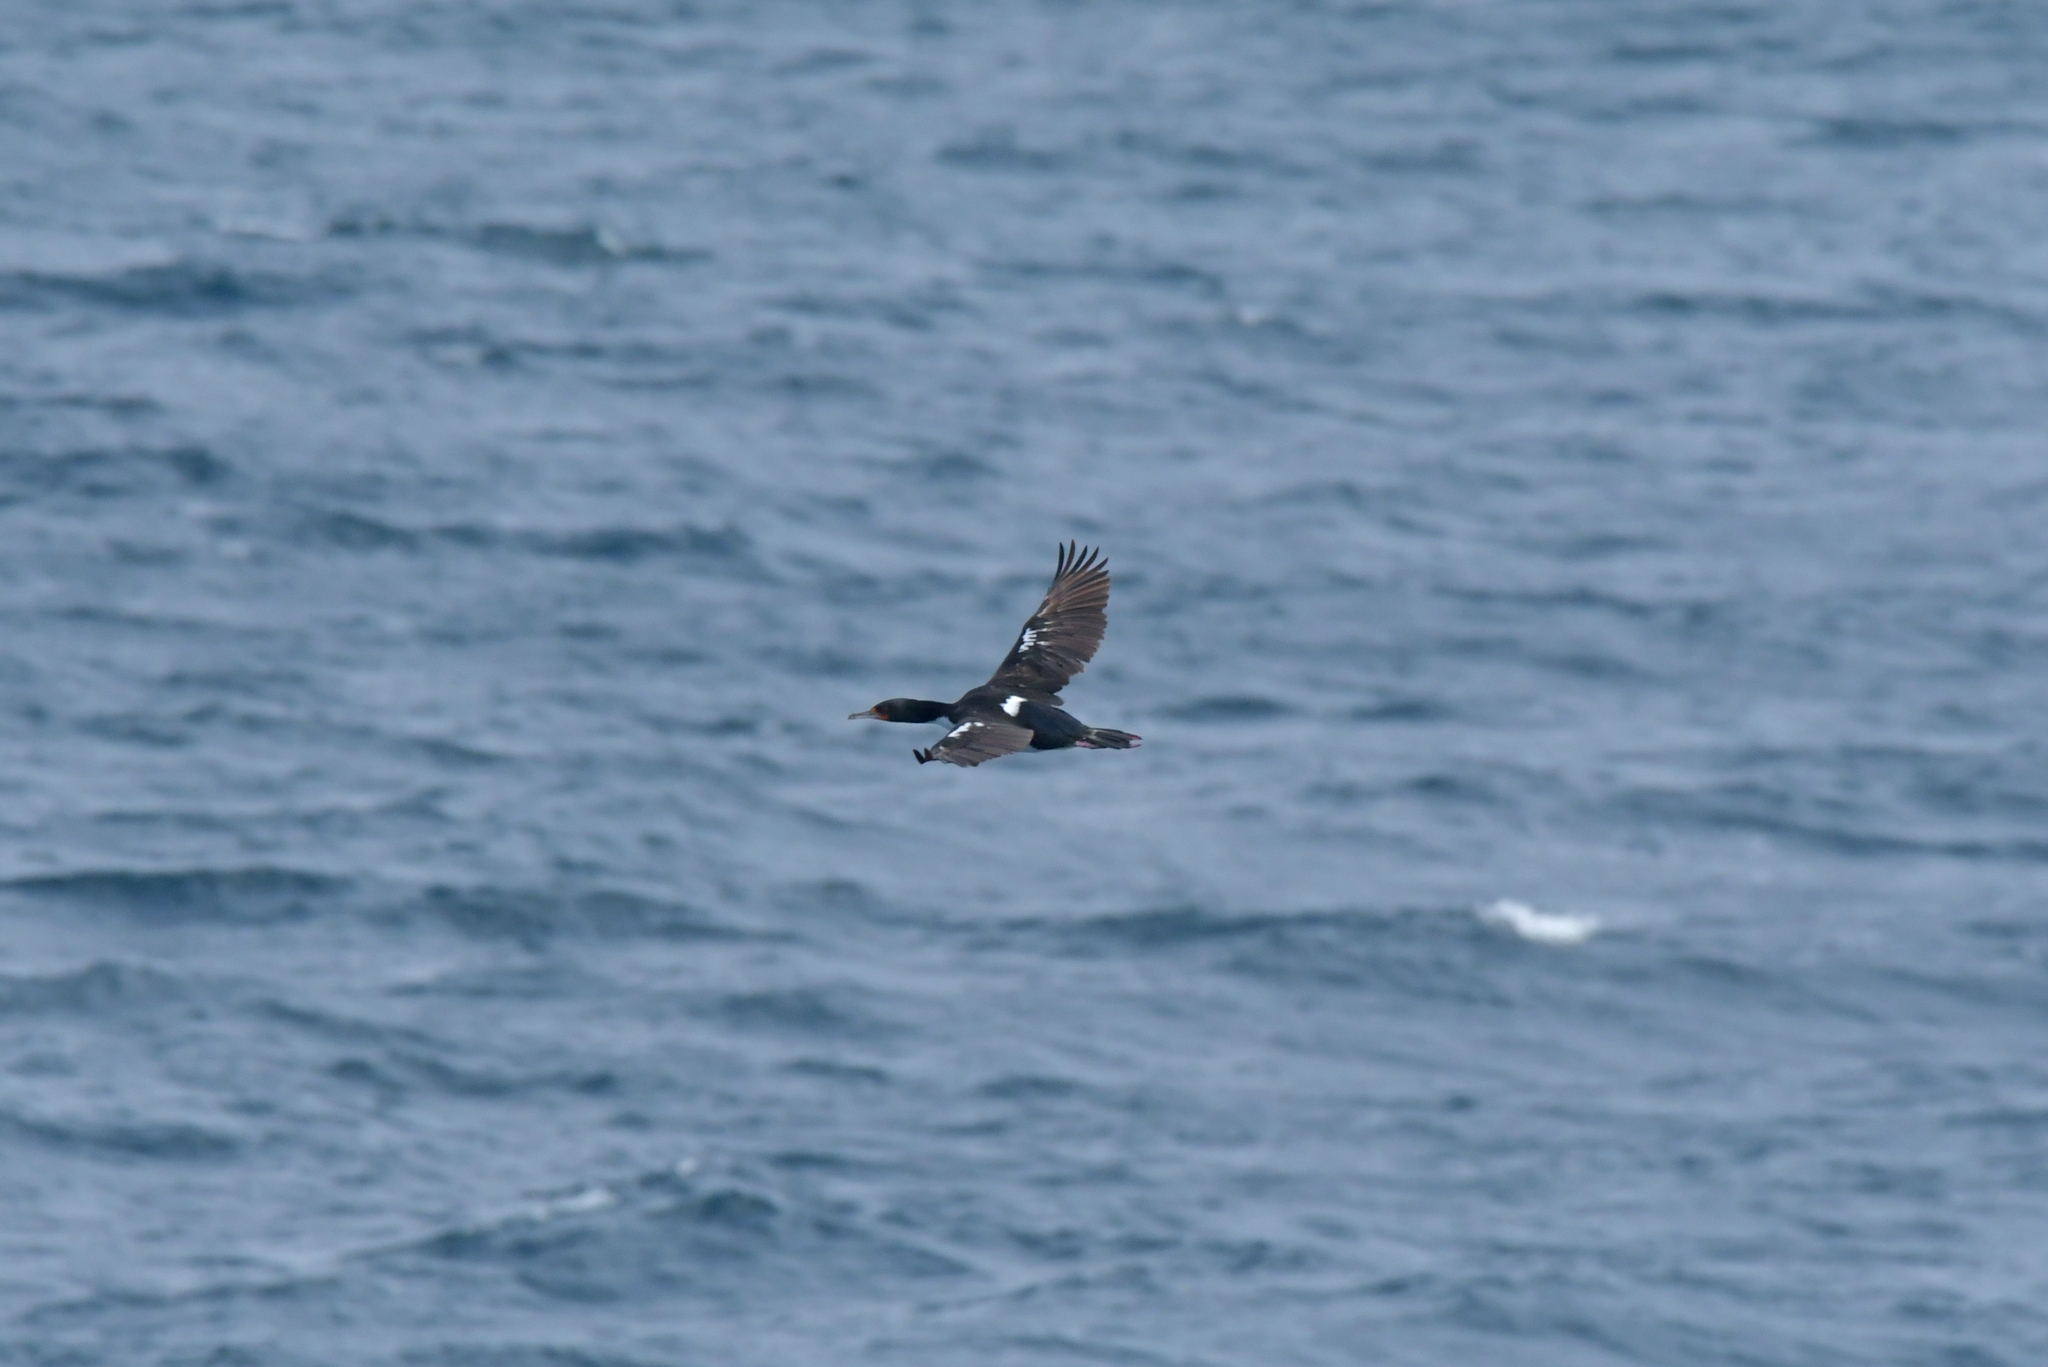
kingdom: Animalia
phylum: Chordata
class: Aves
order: Suliformes
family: Phalacrocoracidae
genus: Leucocarbo
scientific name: Leucocarbo onslowi
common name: Chatham shag
